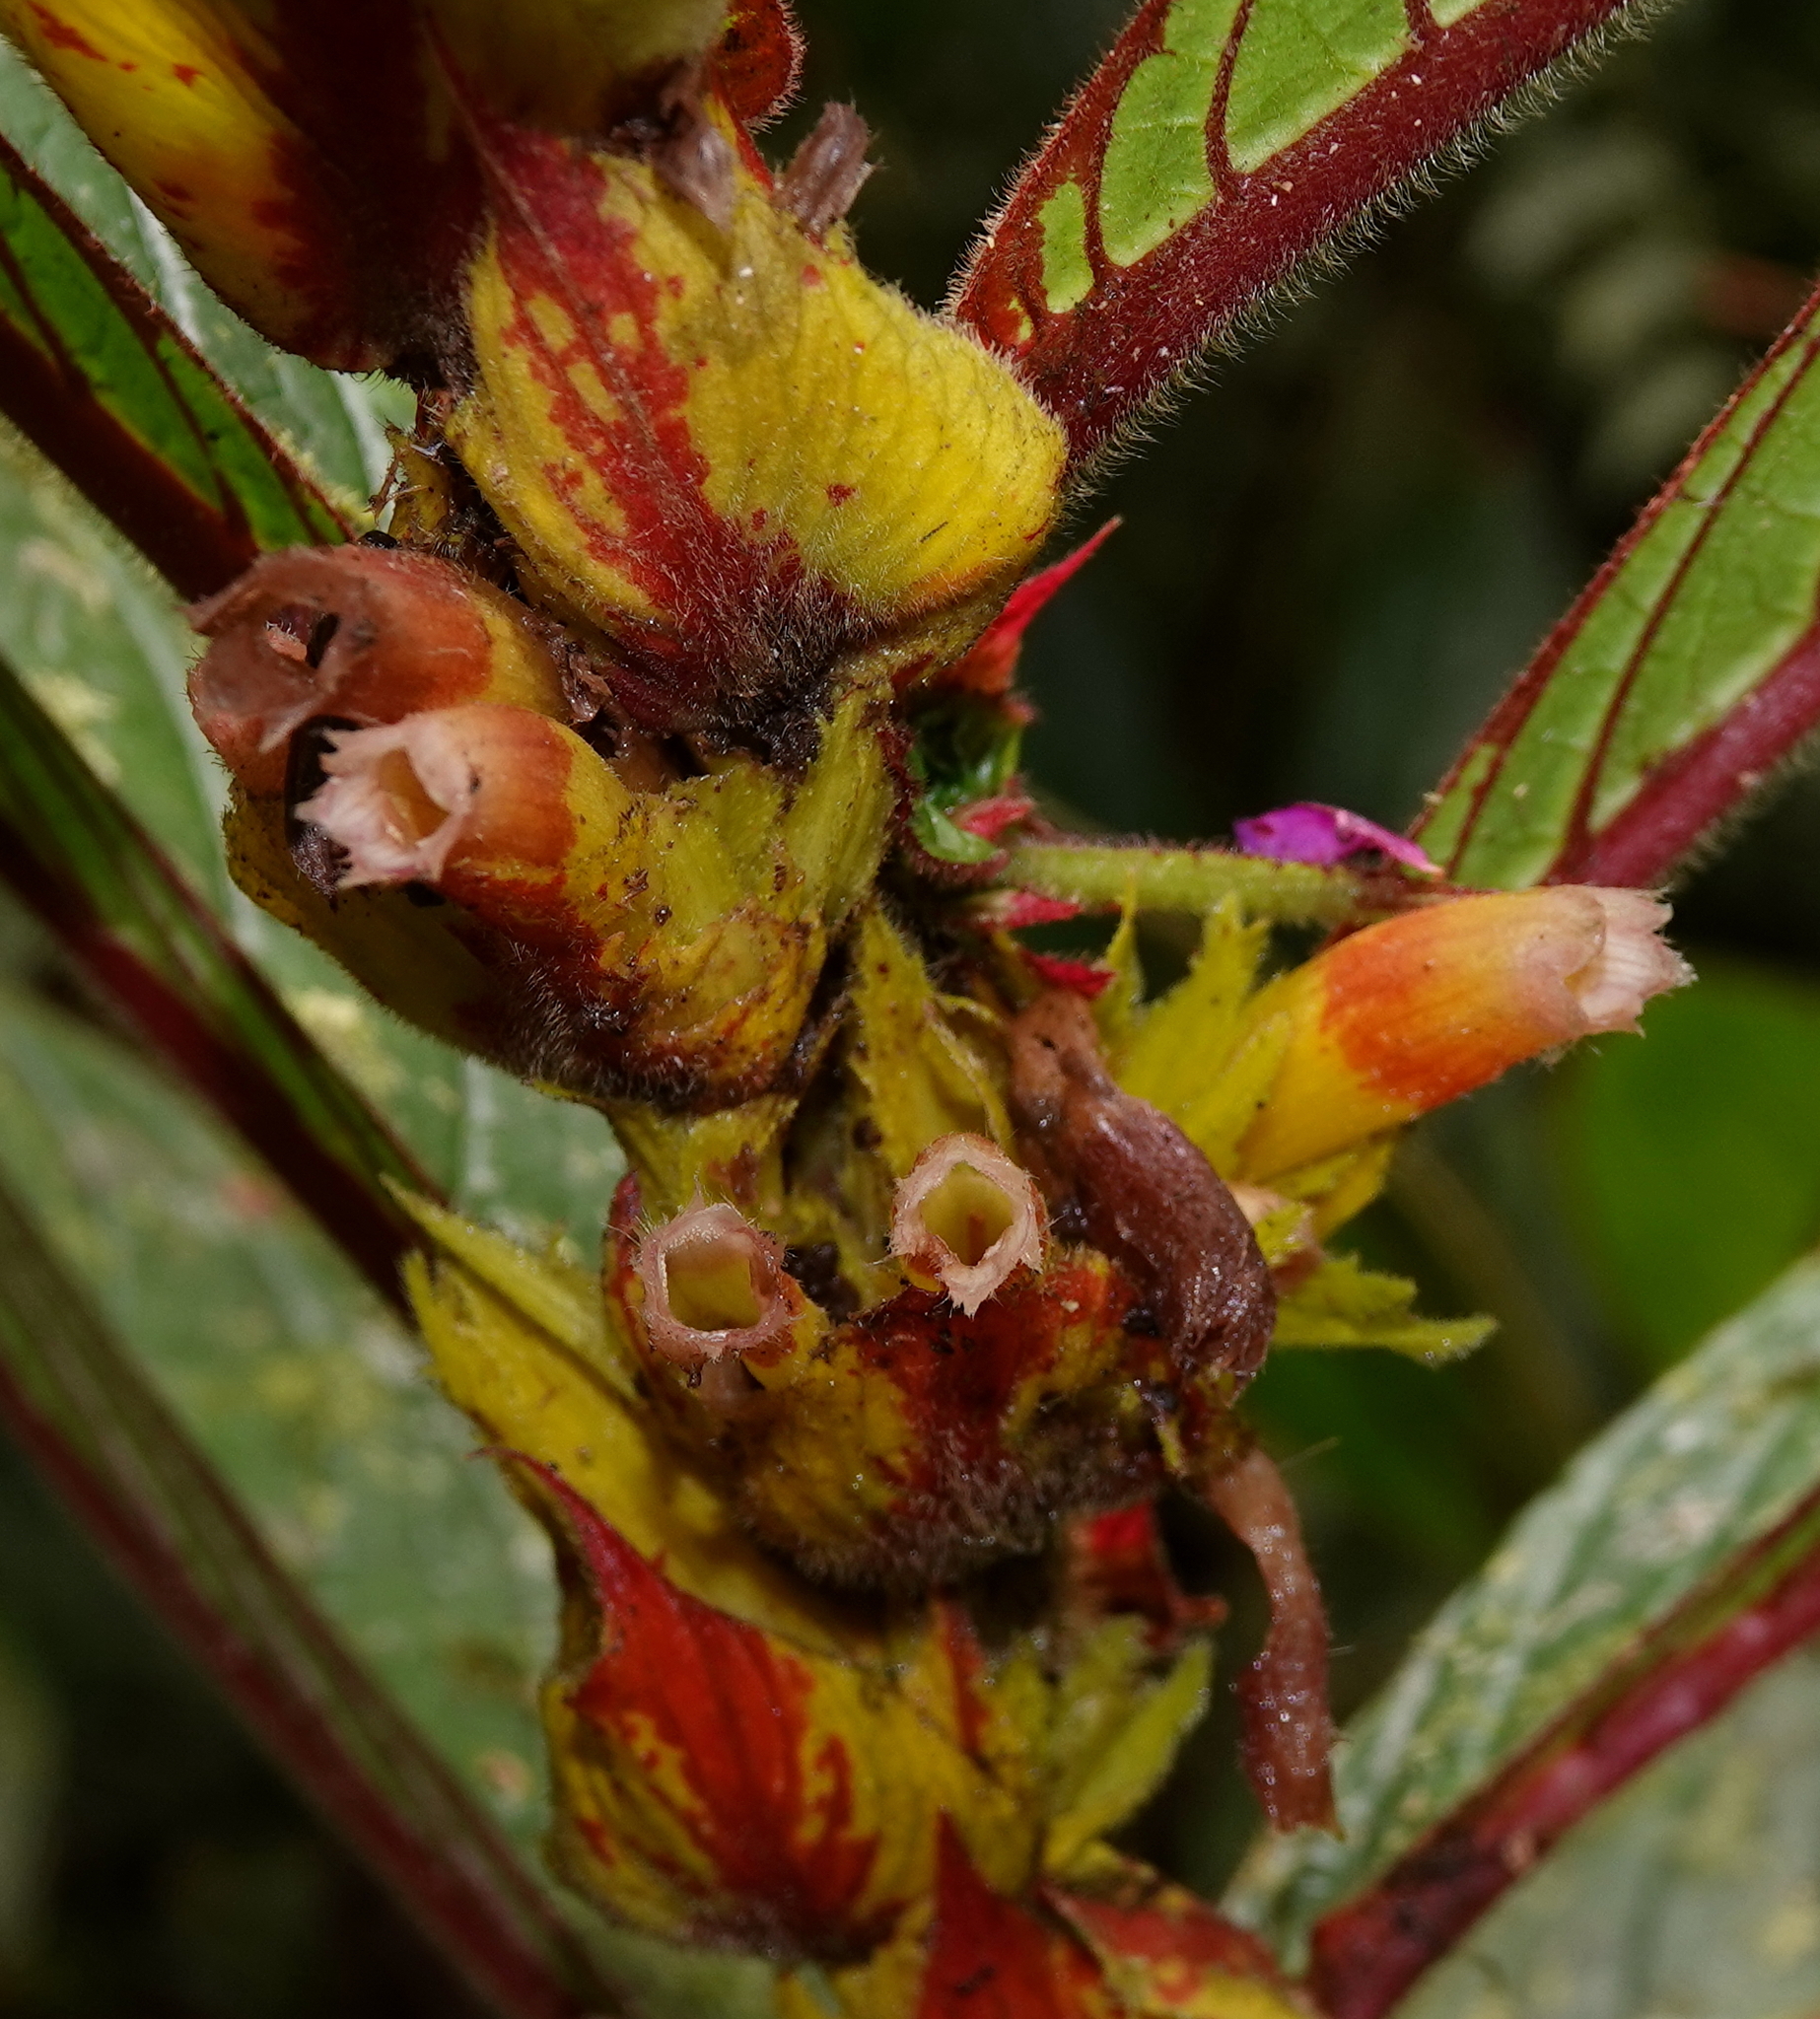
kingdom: Plantae
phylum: Tracheophyta
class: Magnoliopsida
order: Lamiales
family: Gesneriaceae
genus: Columnea
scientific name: Columnea rubriacuta
